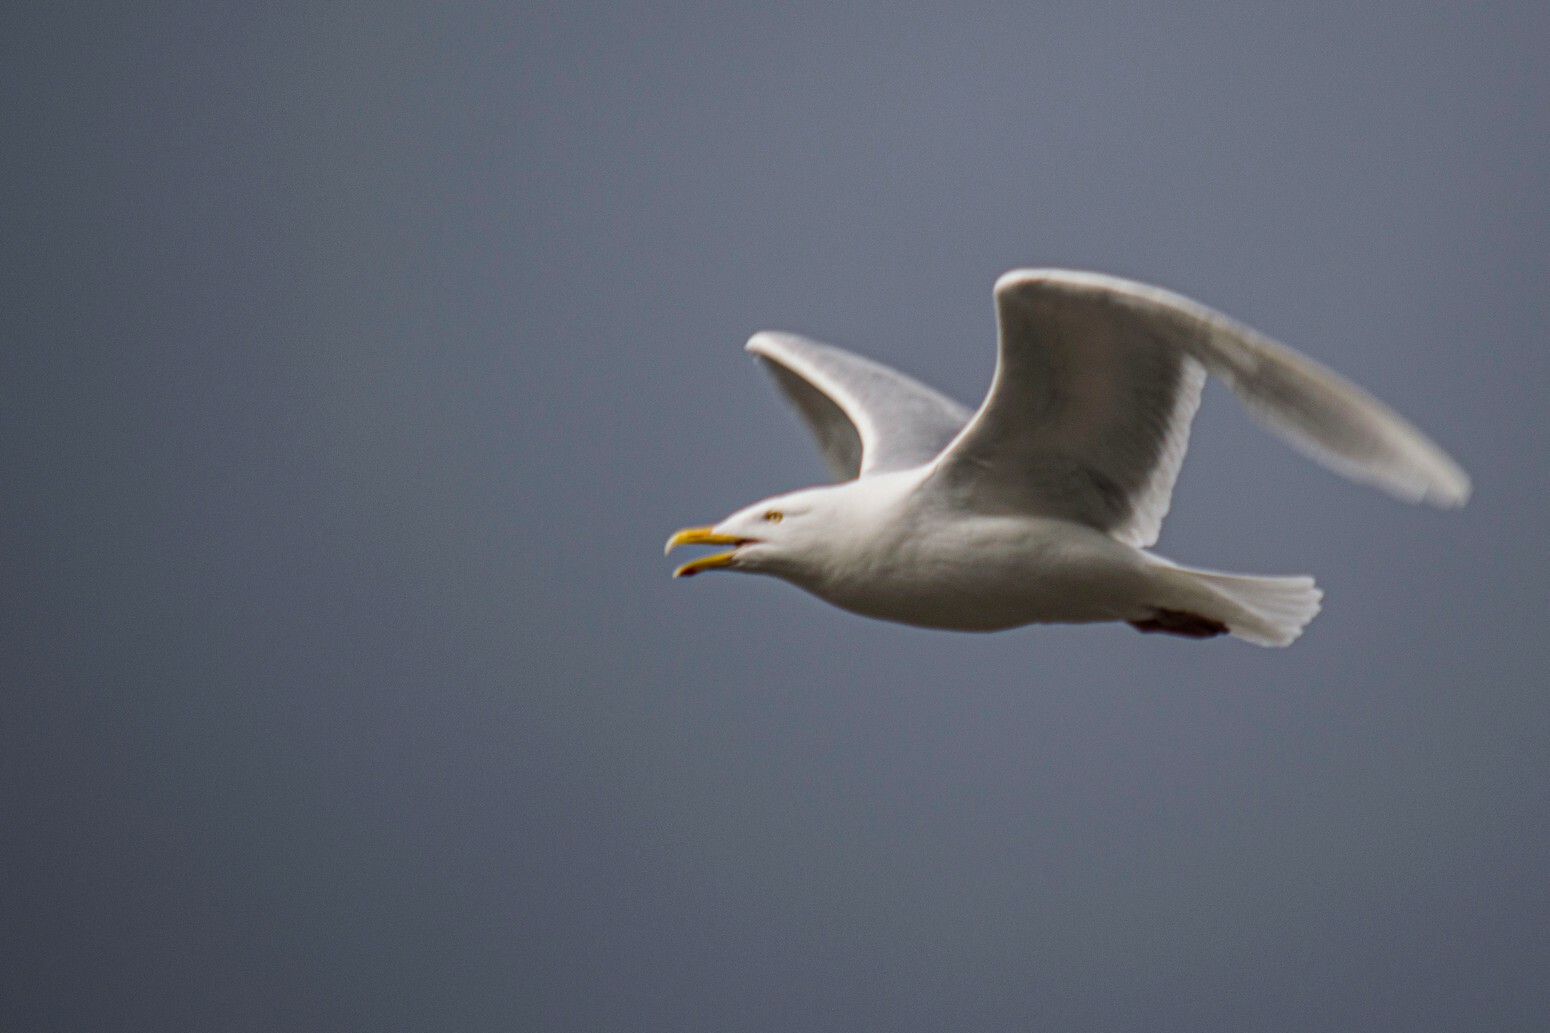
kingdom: Animalia
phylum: Chordata
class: Aves
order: Charadriiformes
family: Laridae
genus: Larus
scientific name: Larus hyperboreus
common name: Glaucous gull
